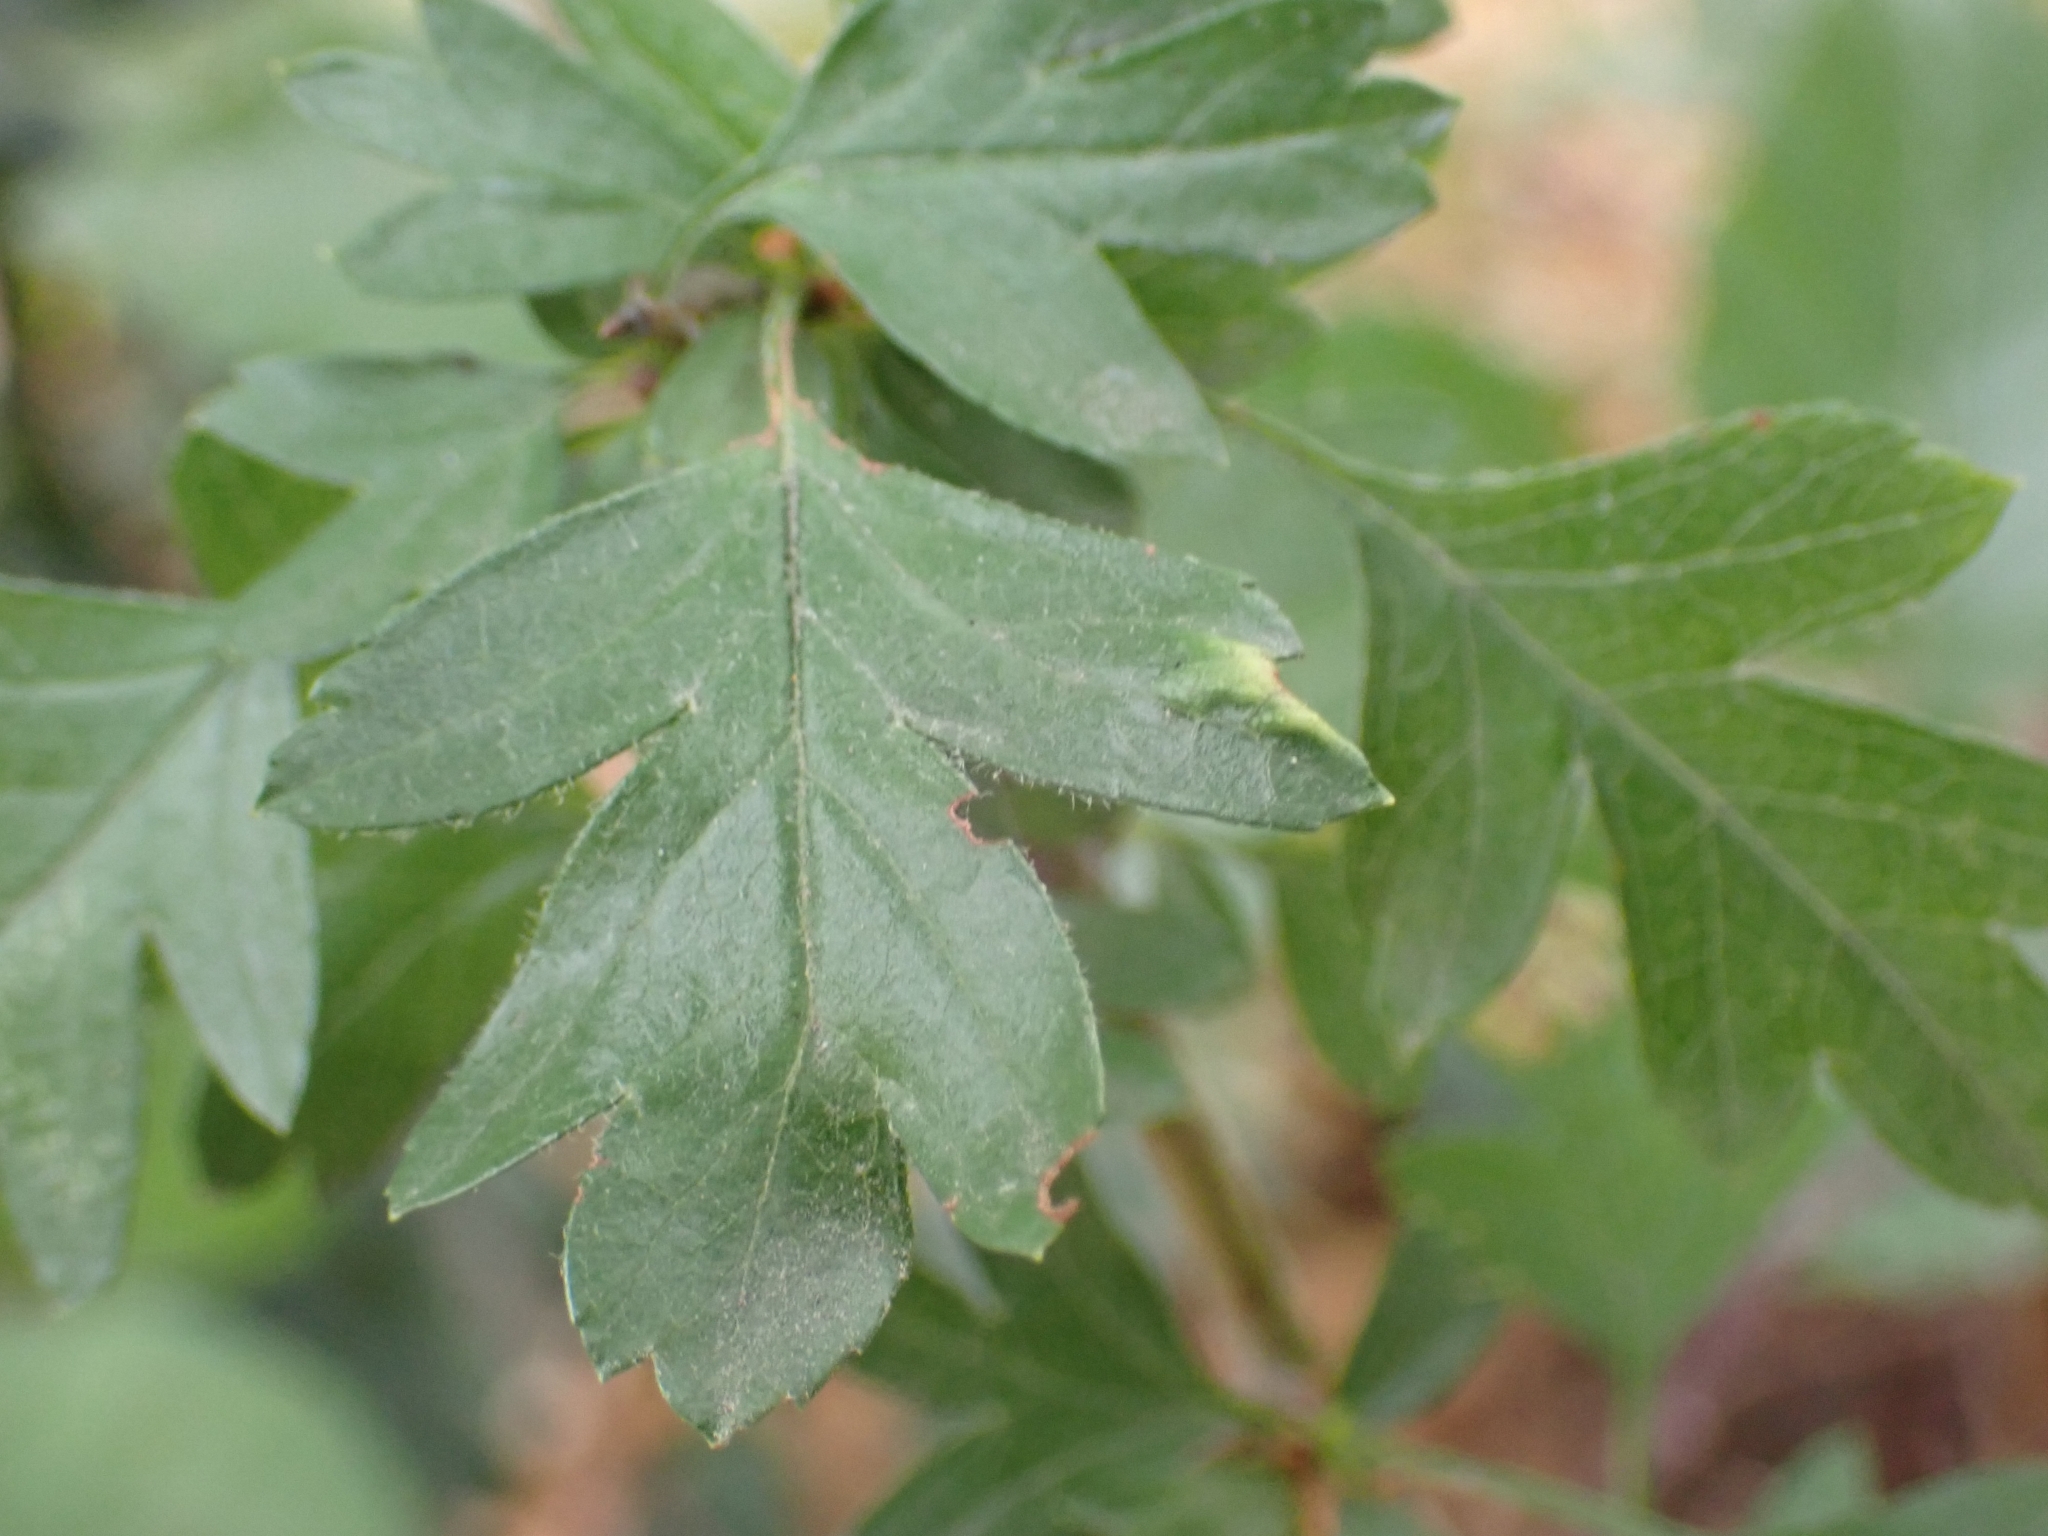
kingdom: Animalia
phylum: Arthropoda
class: Arachnida
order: Trombidiformes
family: Eriophyidae
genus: Phyllocoptes
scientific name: Phyllocoptes goniothorax
